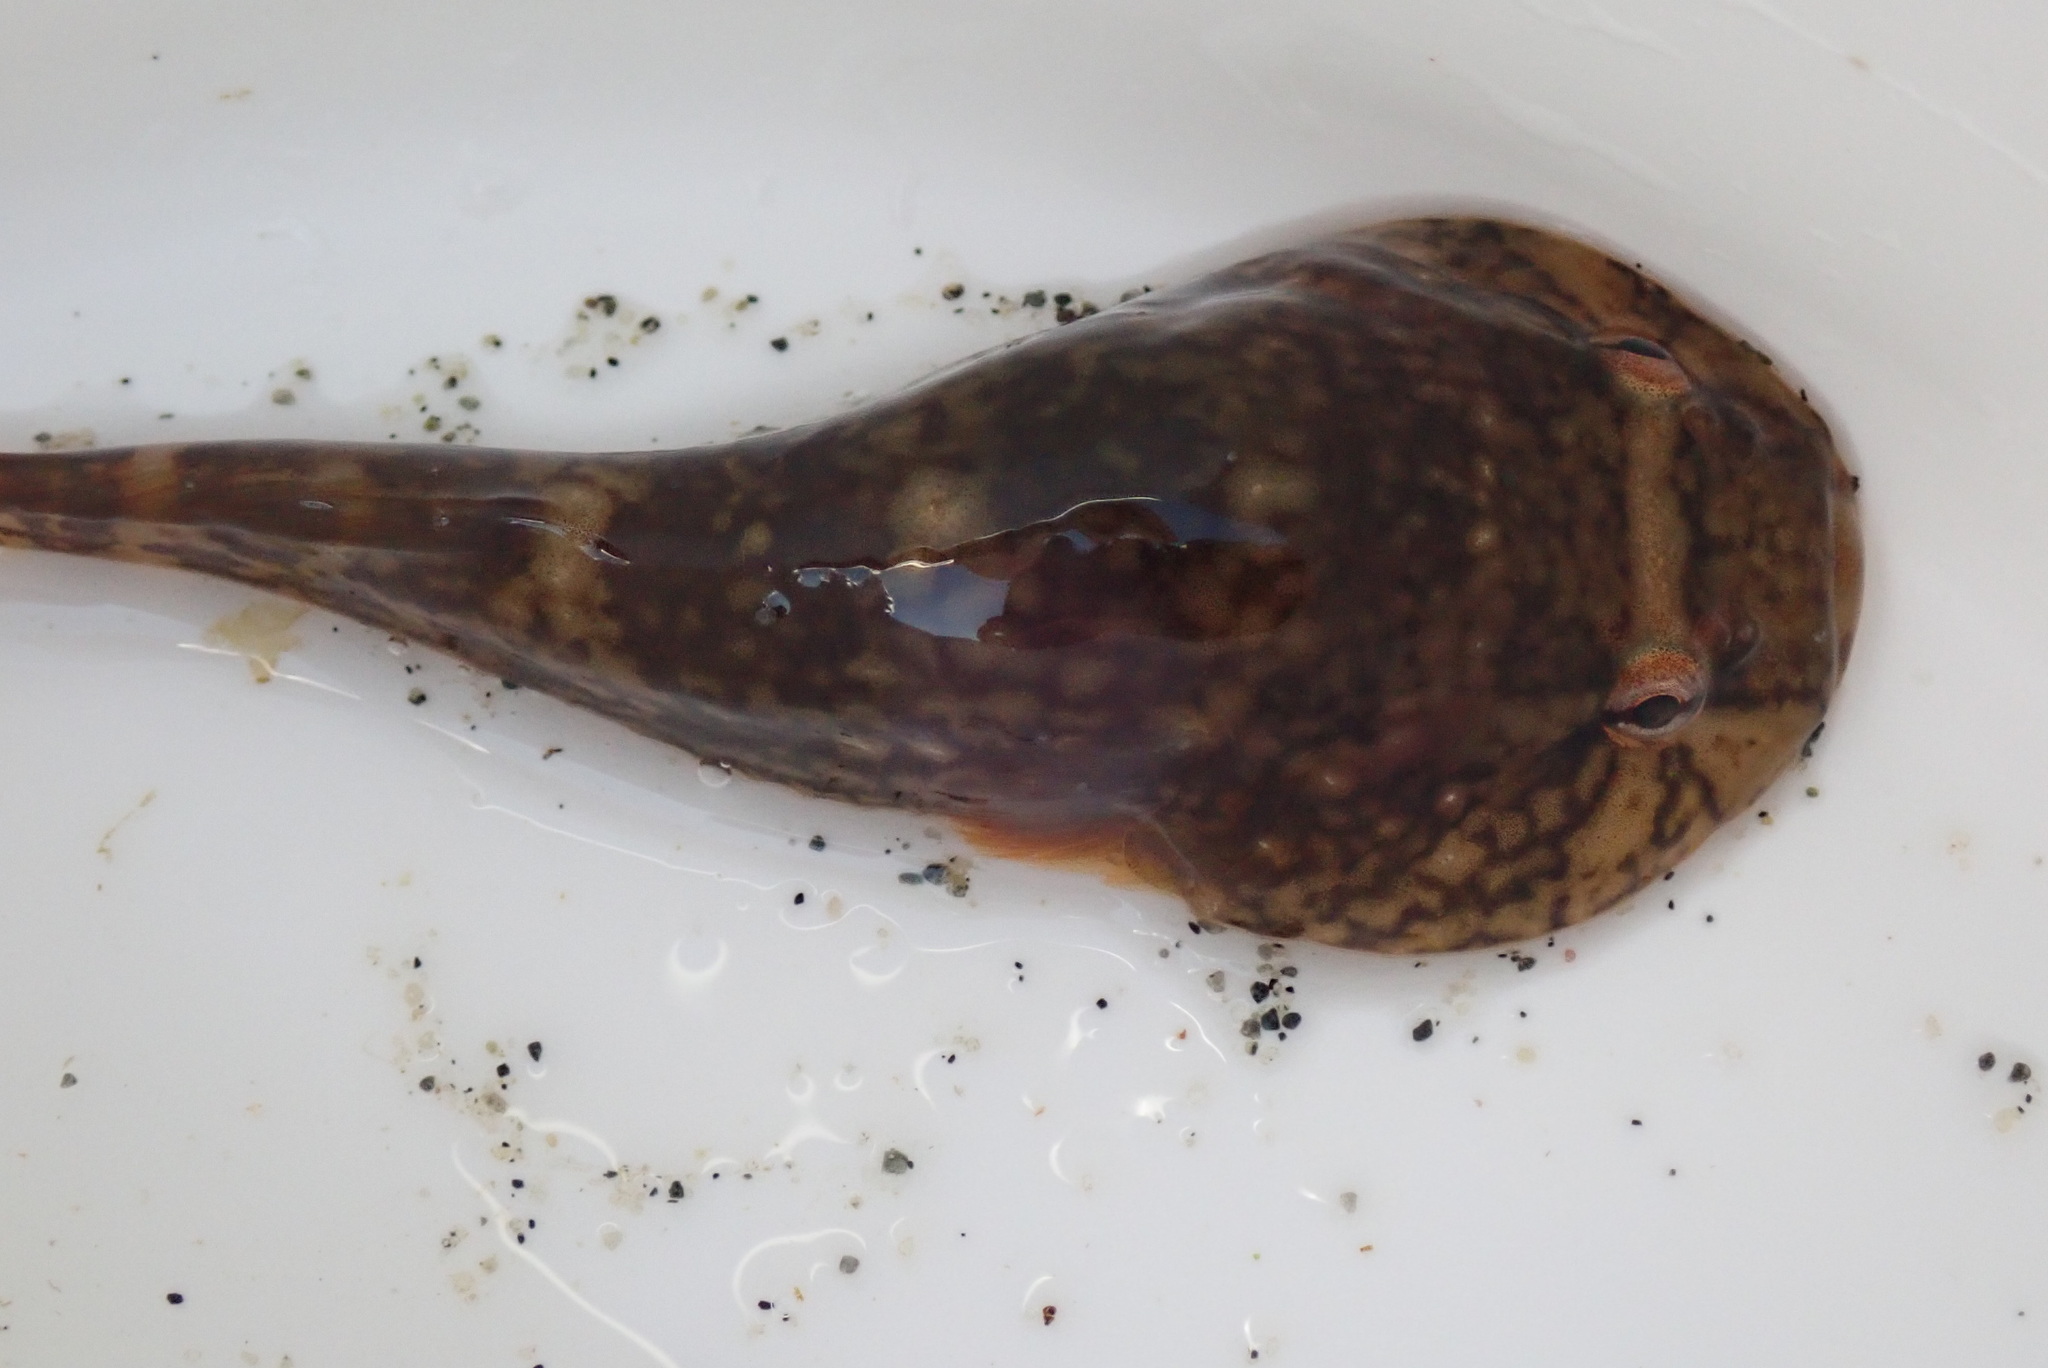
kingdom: Animalia
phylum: Chordata
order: Gobiesociformes
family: Gobiesocidae
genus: Gobiesox
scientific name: Gobiesox maeandricus
